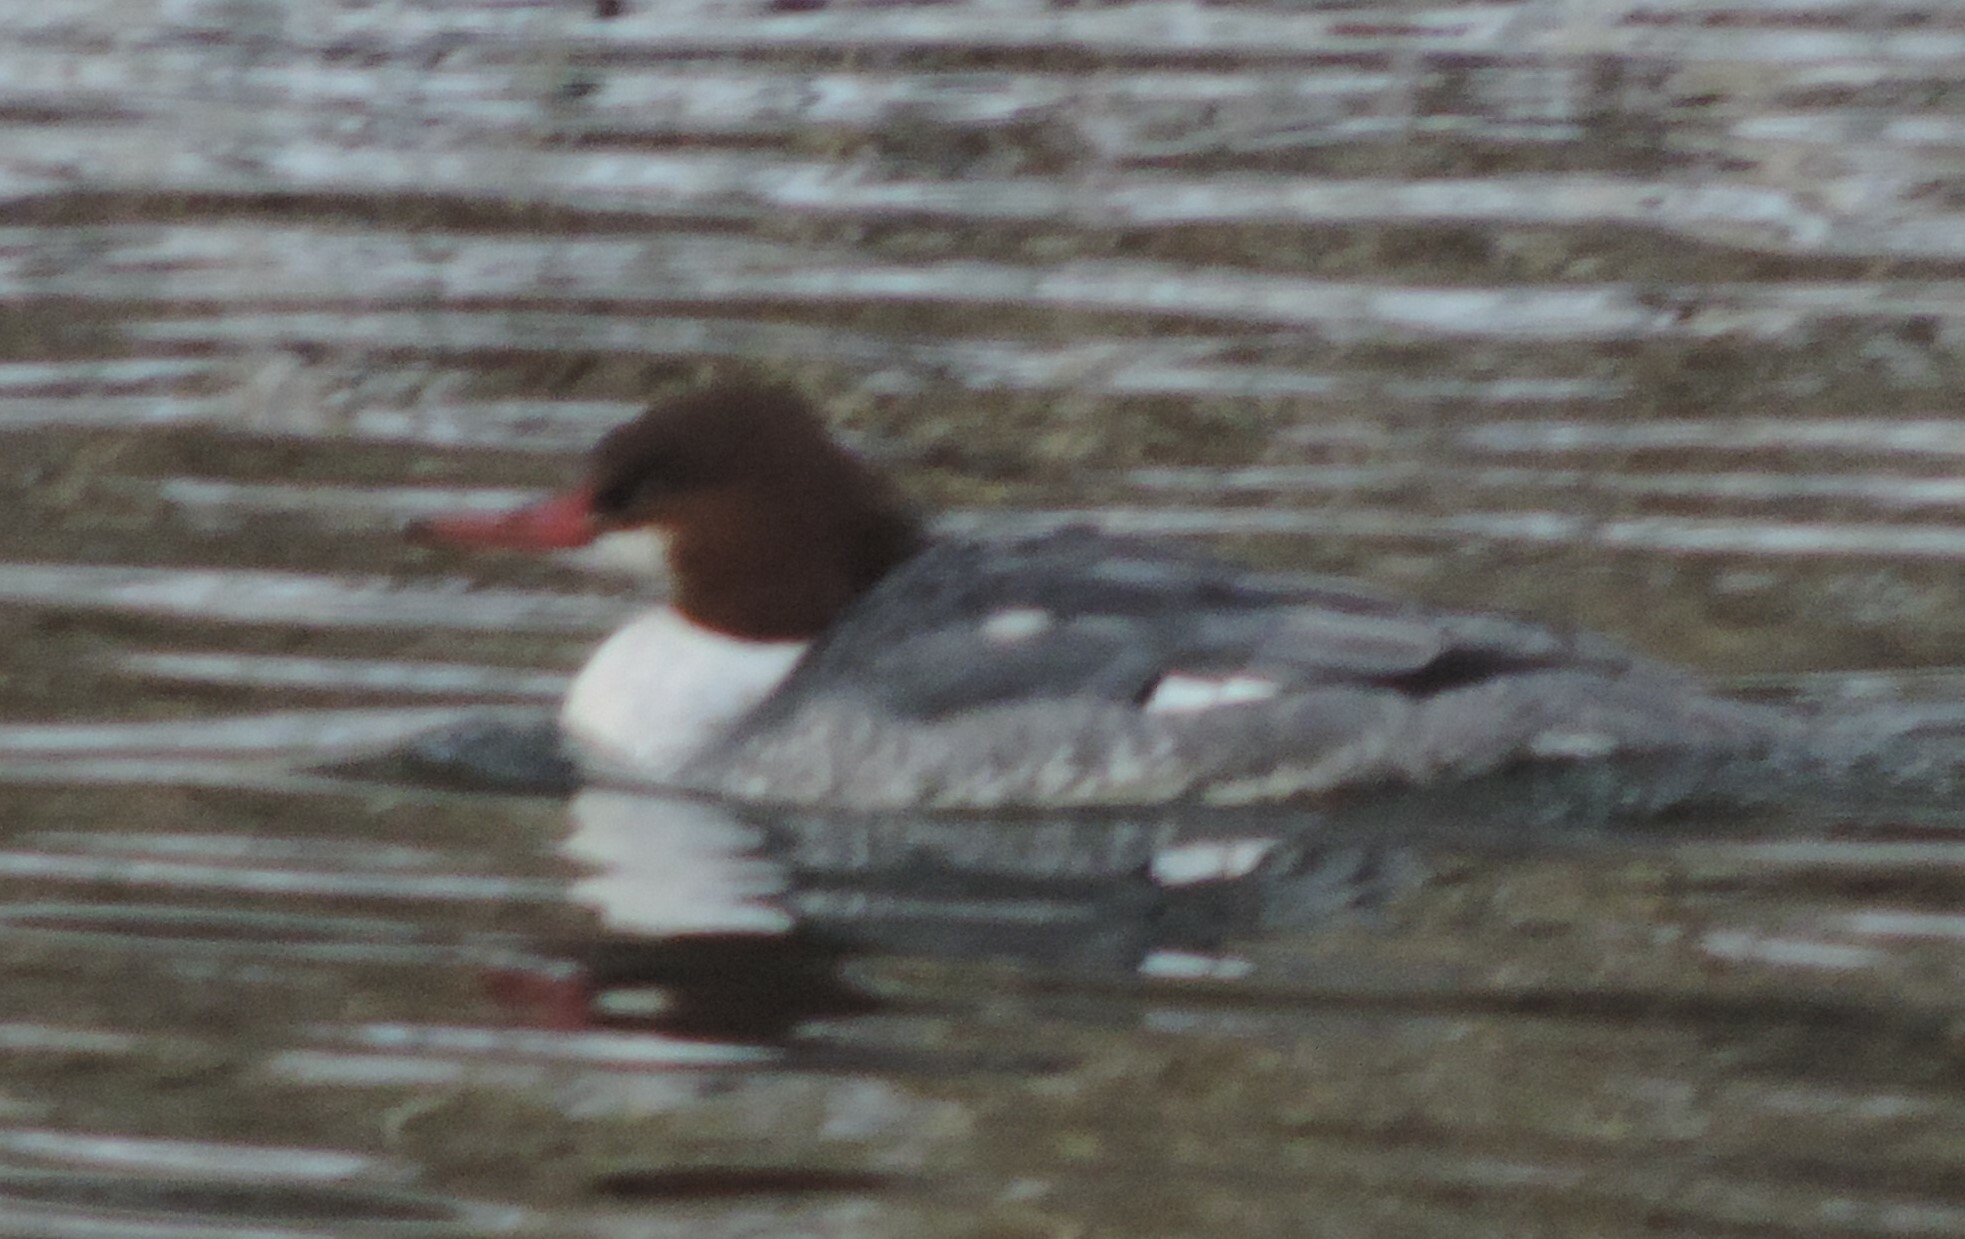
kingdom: Animalia
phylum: Chordata
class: Aves
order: Anseriformes
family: Anatidae
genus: Mergus
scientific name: Mergus merganser
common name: Common merganser
